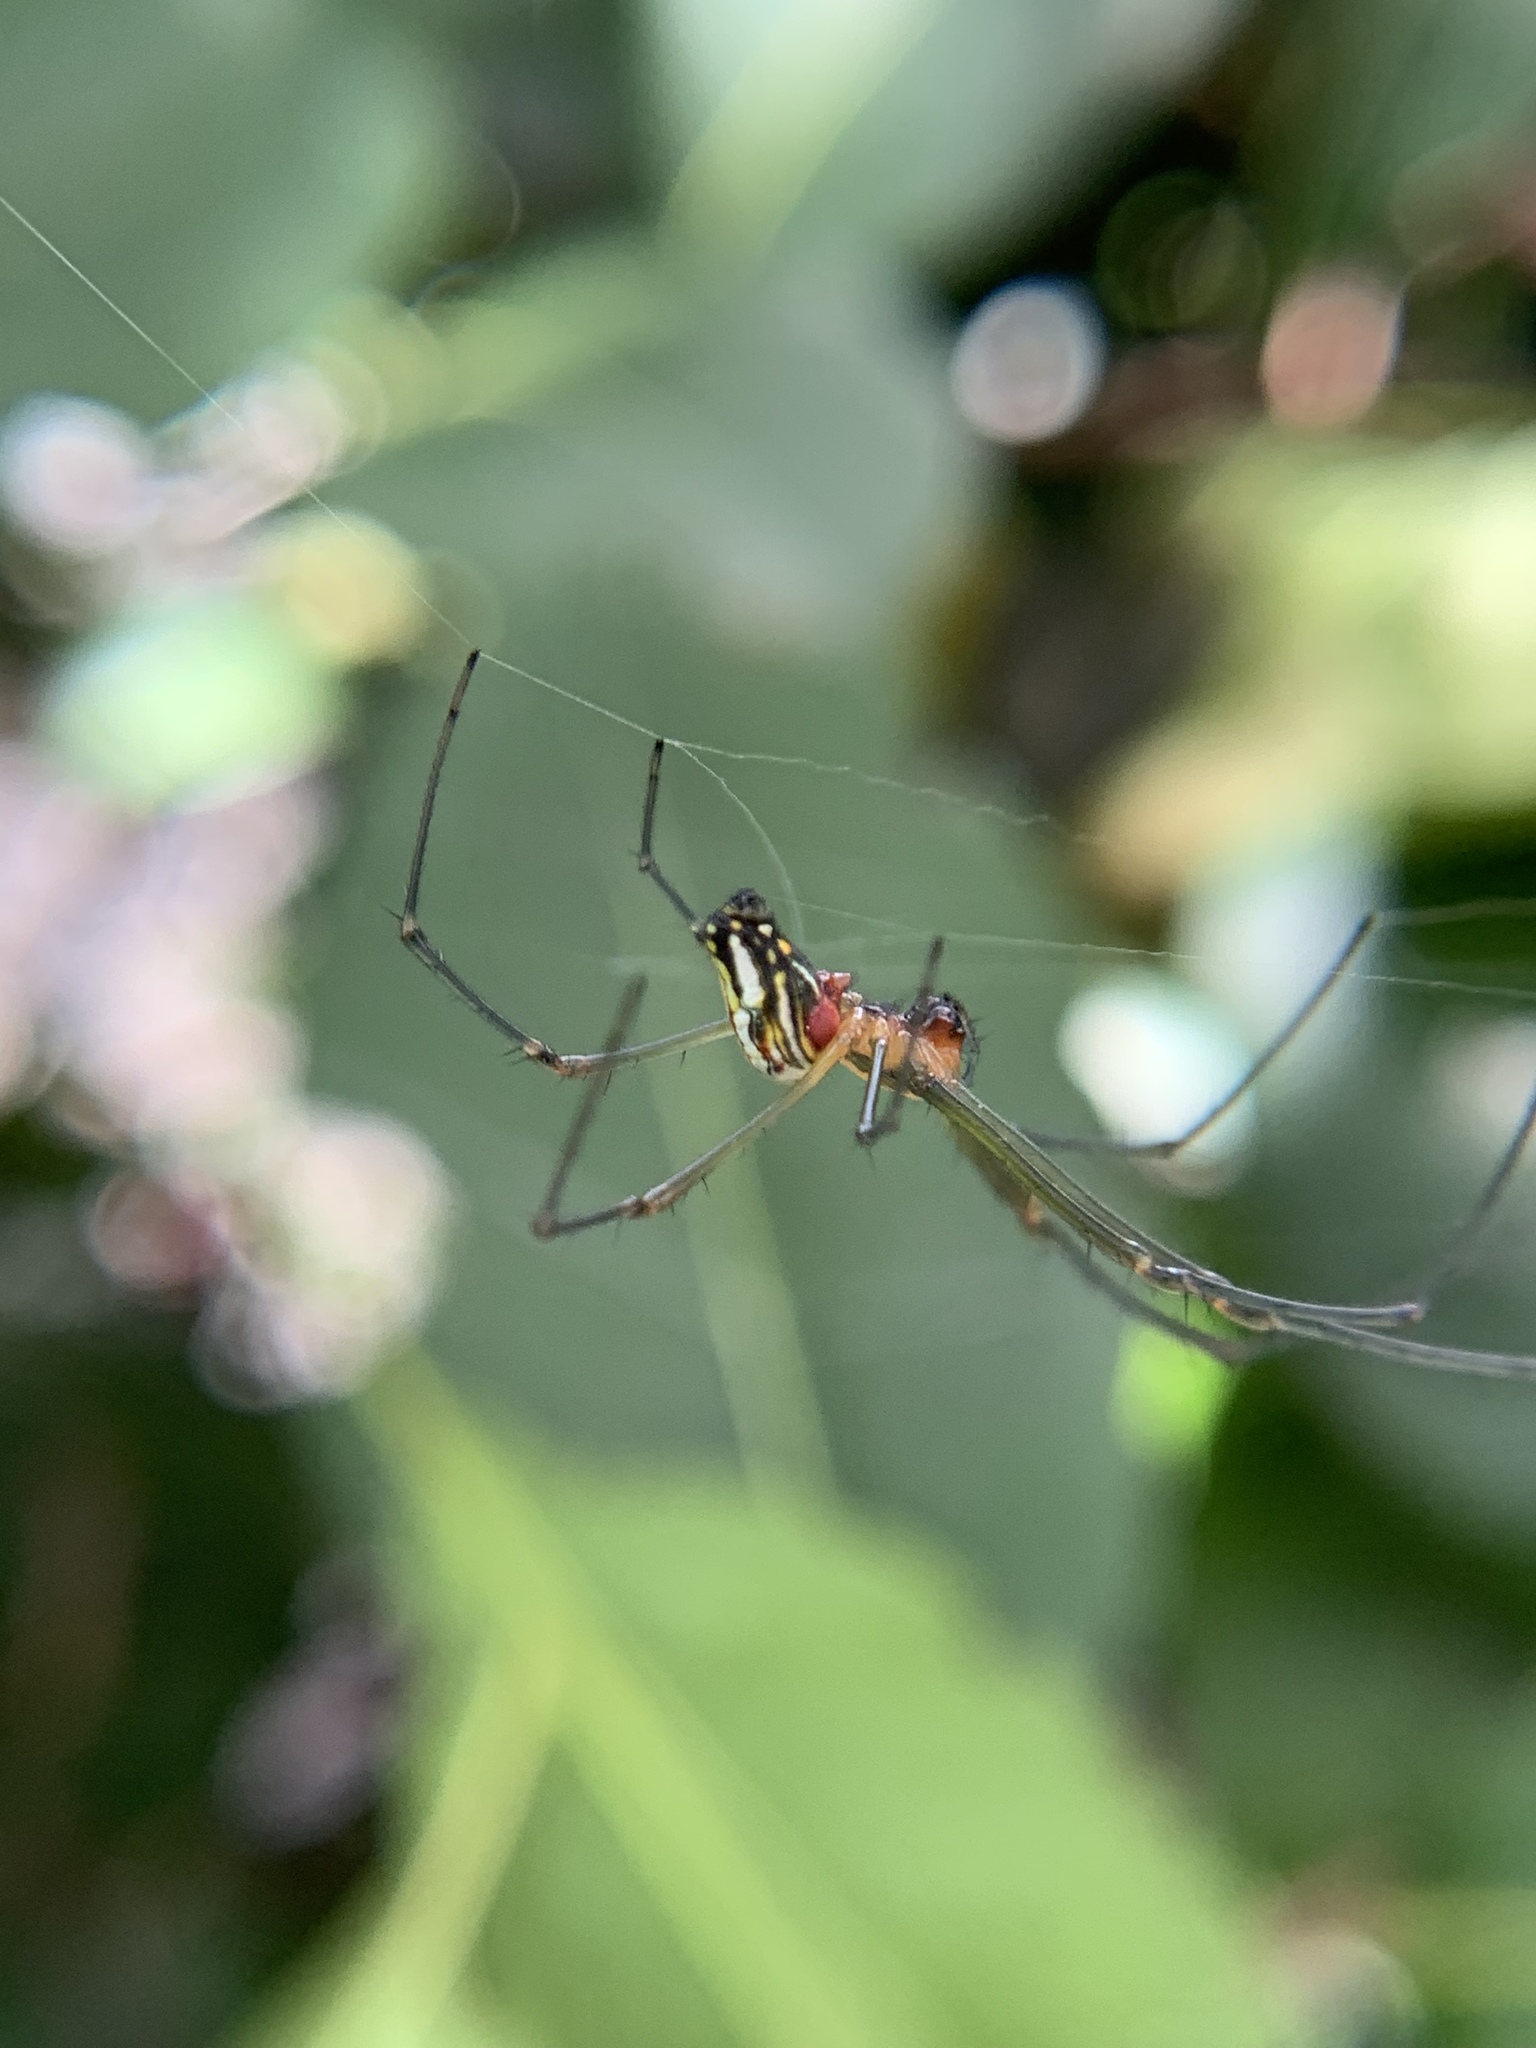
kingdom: Animalia
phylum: Arthropoda
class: Arachnida
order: Araneae
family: Tetragnathidae
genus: Leucauge
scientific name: Leucauge argyra
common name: Longjawed orb weavers
